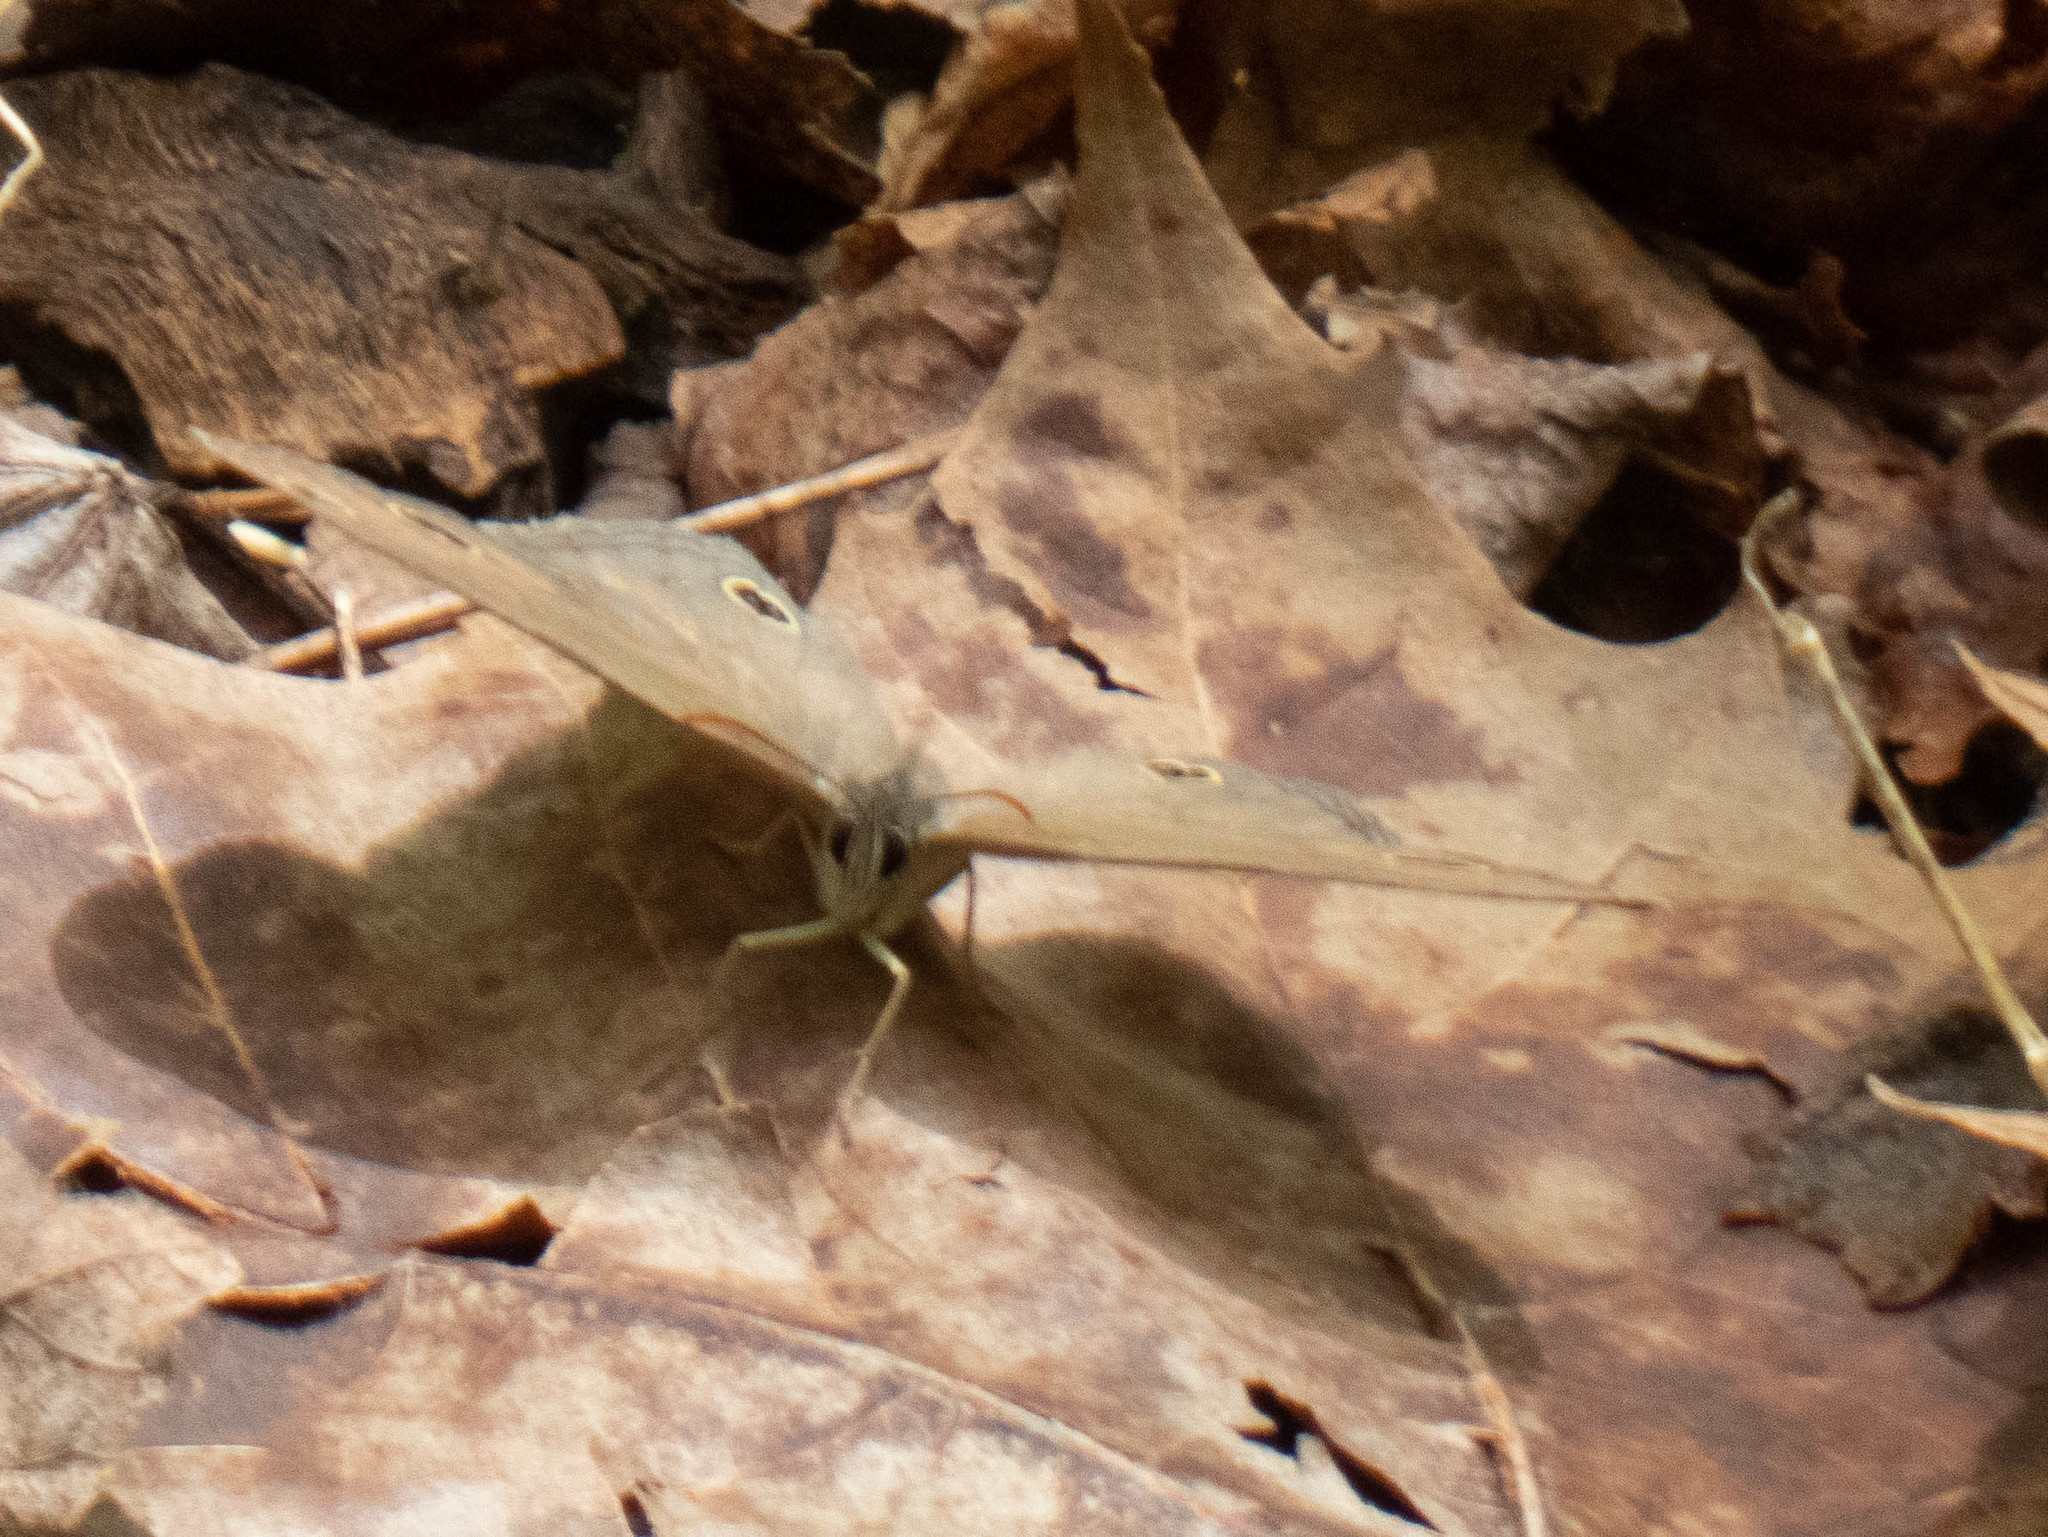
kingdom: Animalia
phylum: Arthropoda
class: Insecta
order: Lepidoptera
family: Nymphalidae
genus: Euptychia
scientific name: Euptychia cymela
